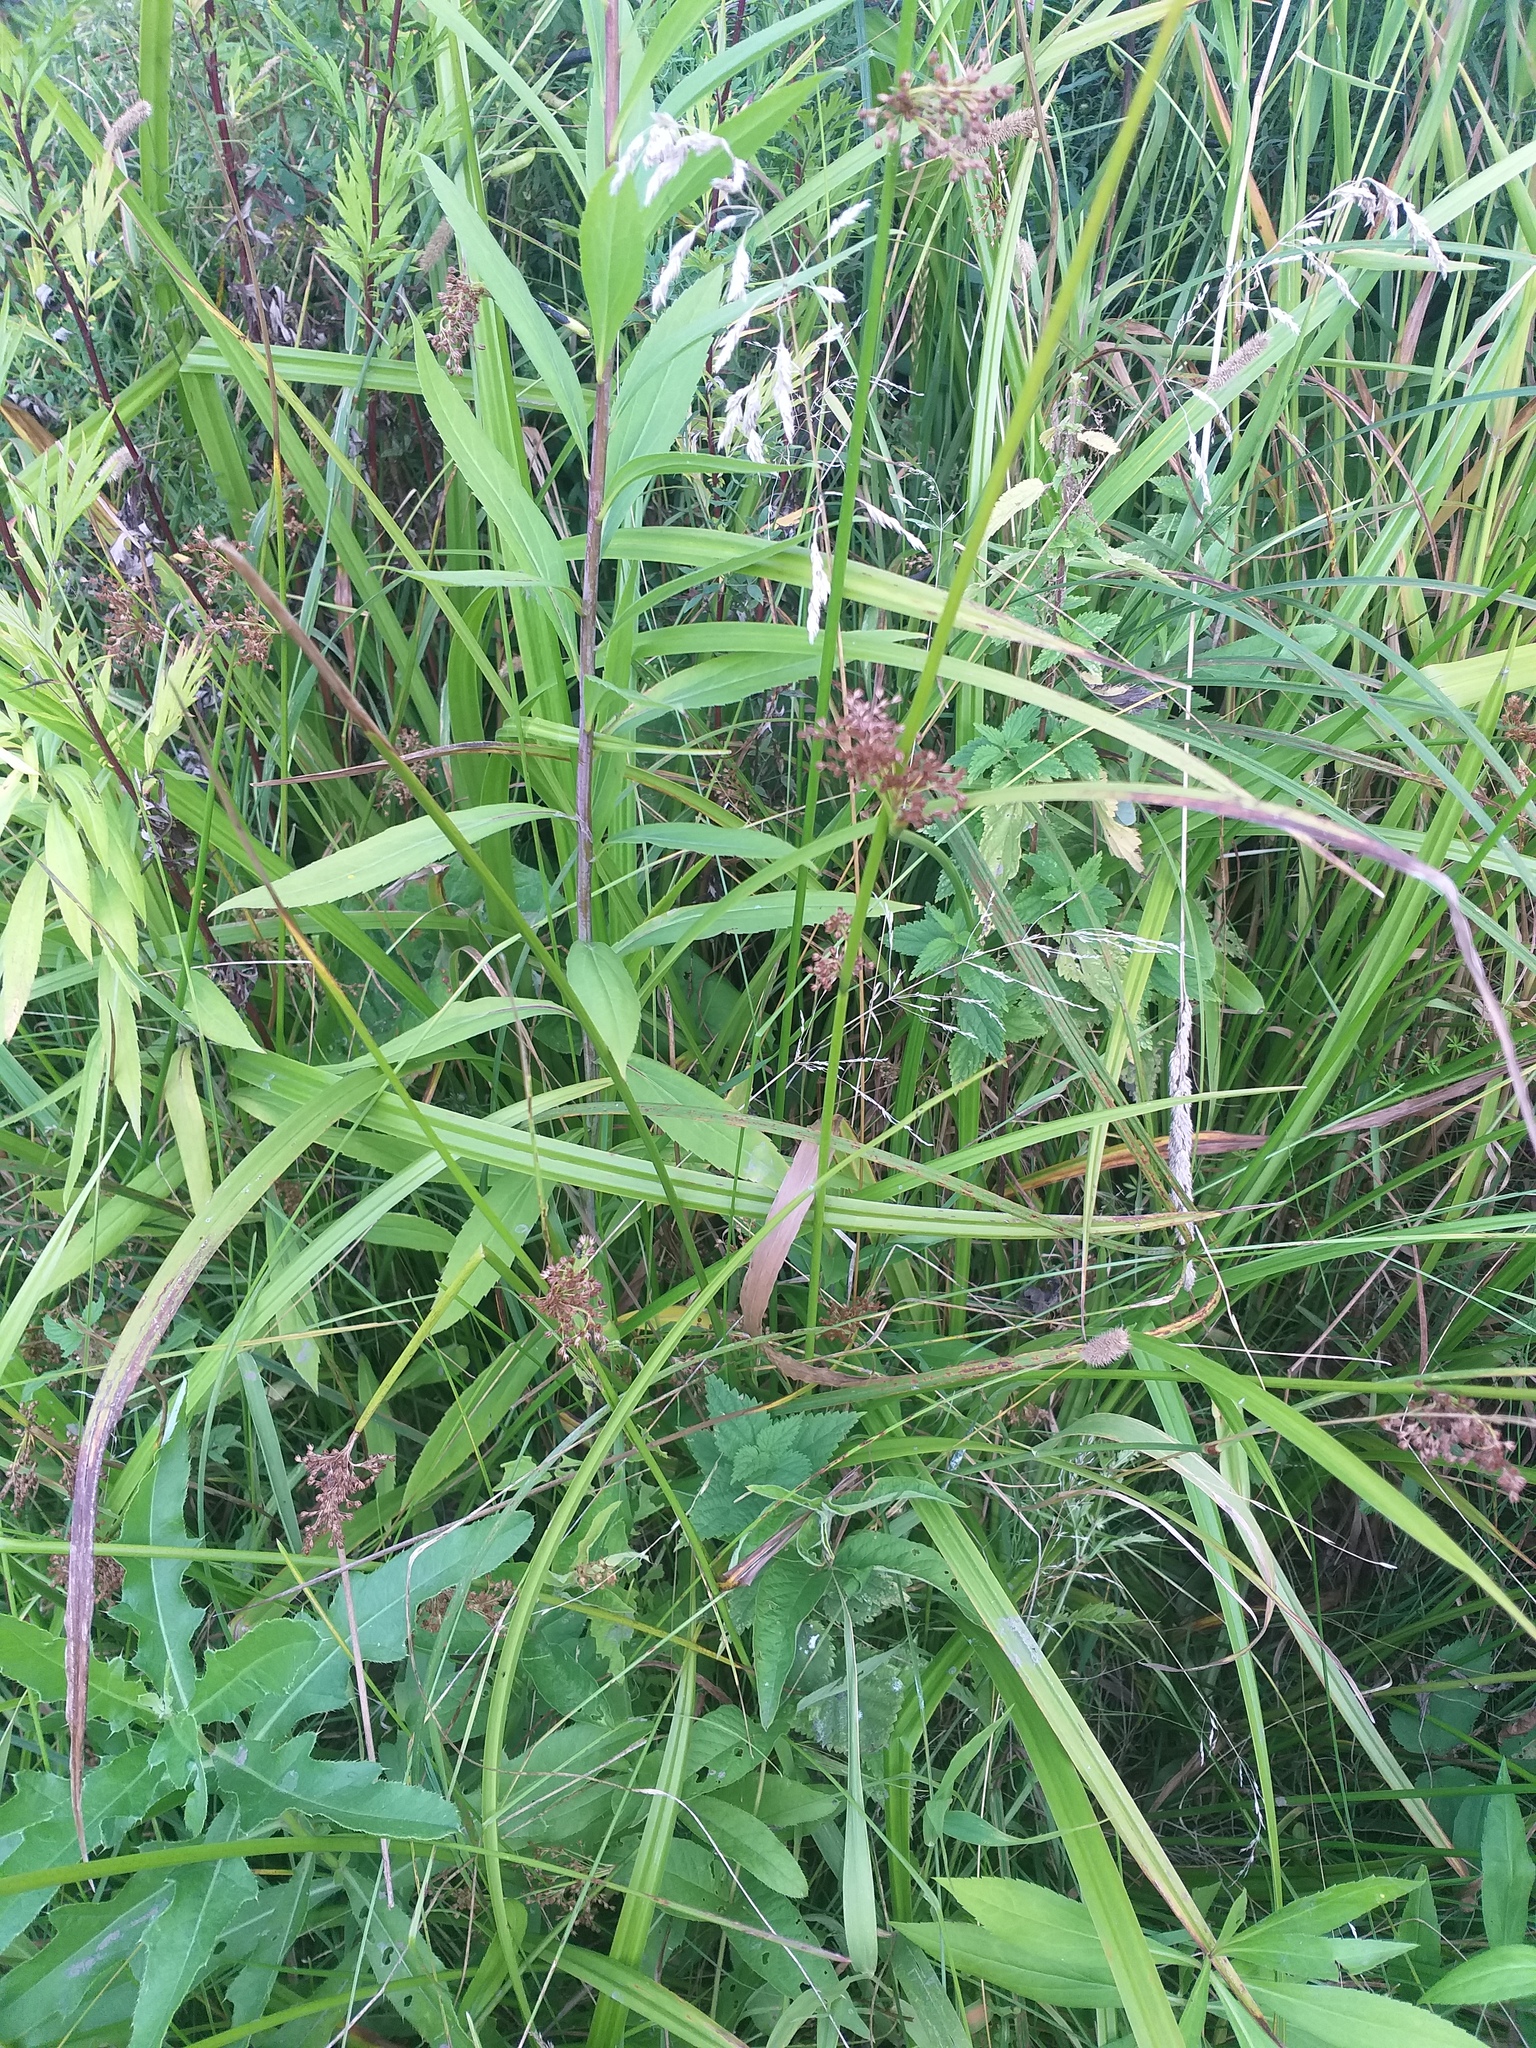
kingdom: Plantae
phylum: Tracheophyta
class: Liliopsida
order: Poales
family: Juncaceae
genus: Juncus
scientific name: Juncus effusus
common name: Soft rush
